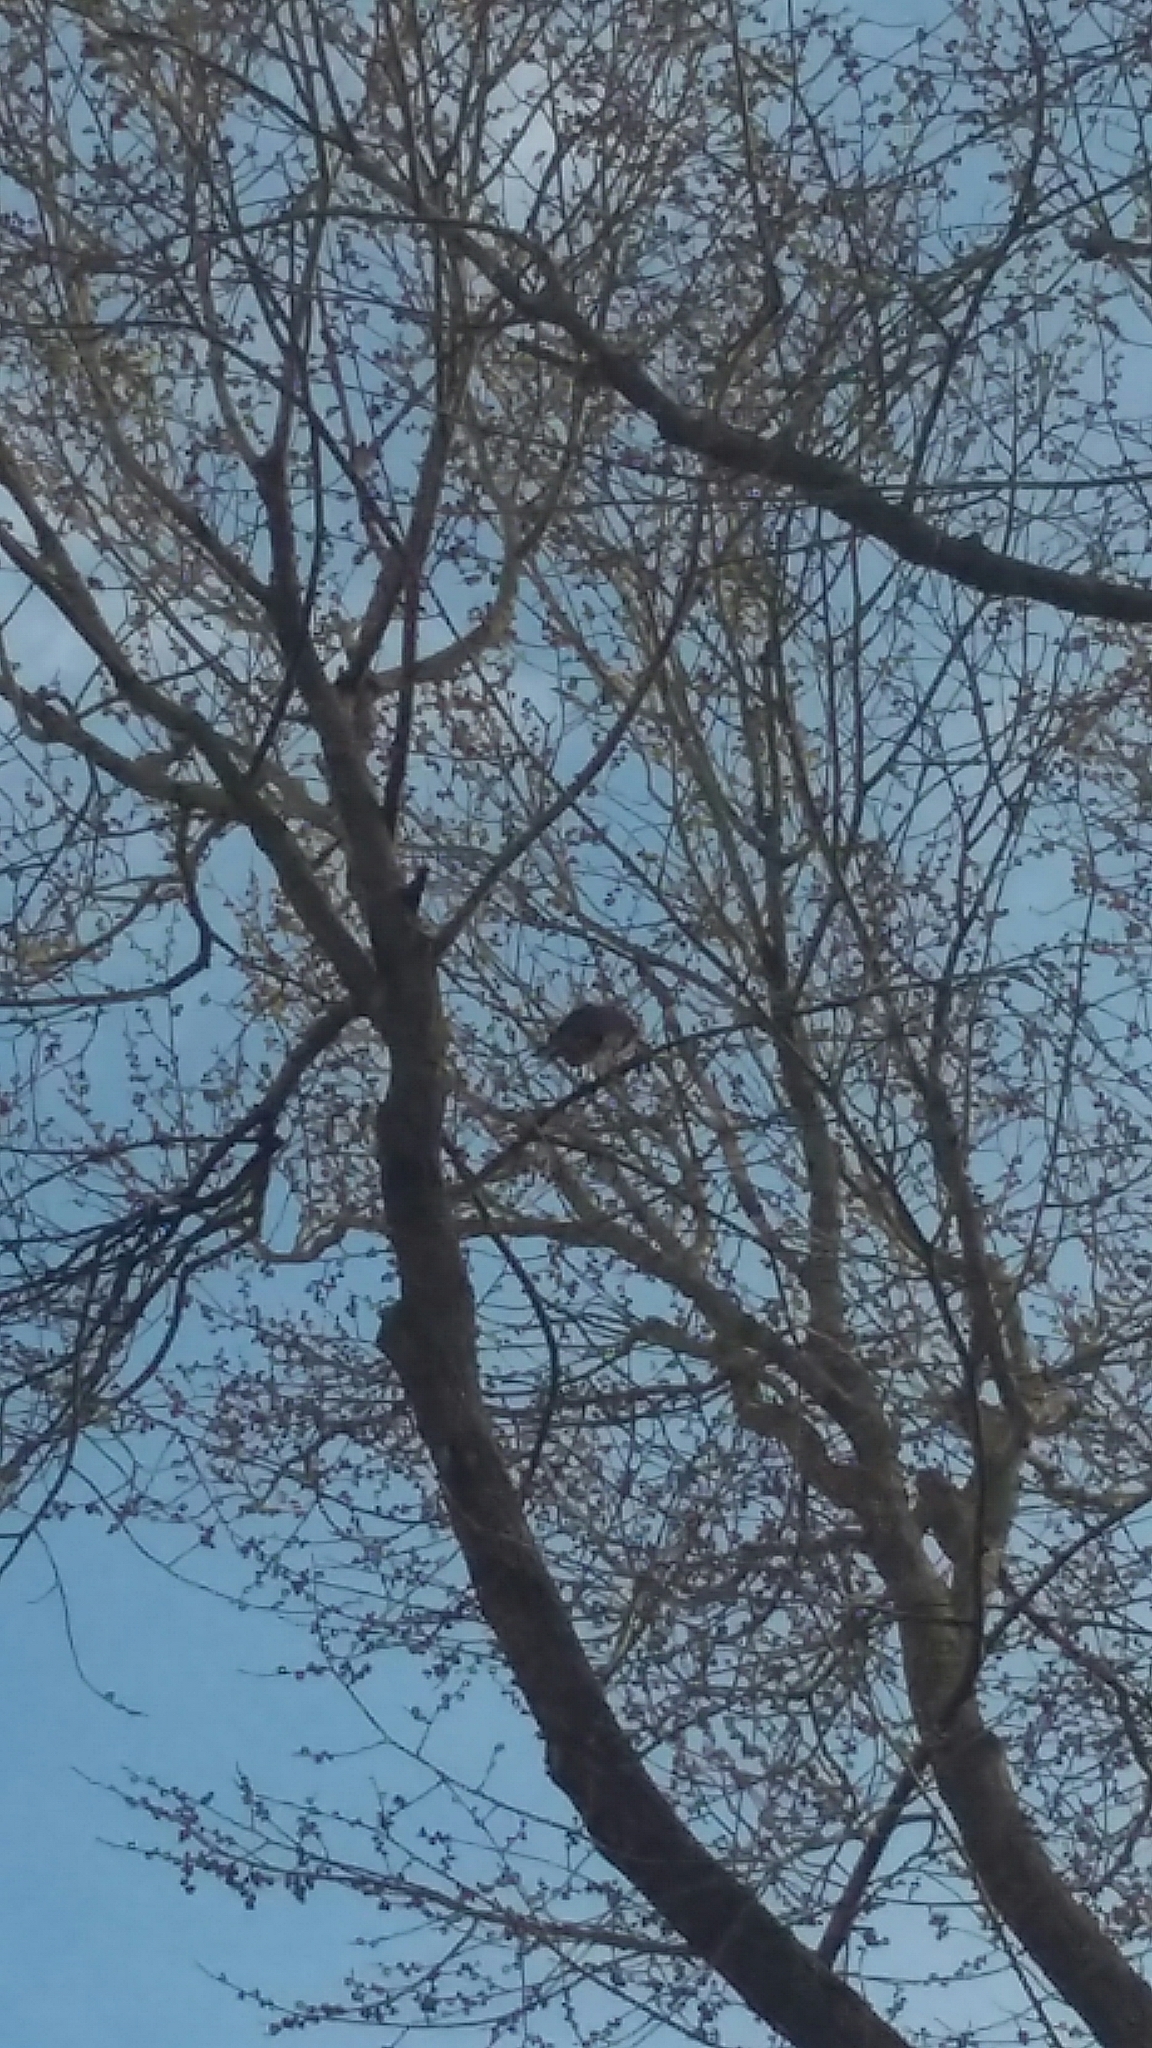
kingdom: Animalia
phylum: Chordata
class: Aves
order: Falconiformes
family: Falconidae
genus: Falco
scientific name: Falco novaeseelandiae
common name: New zealand falcon
